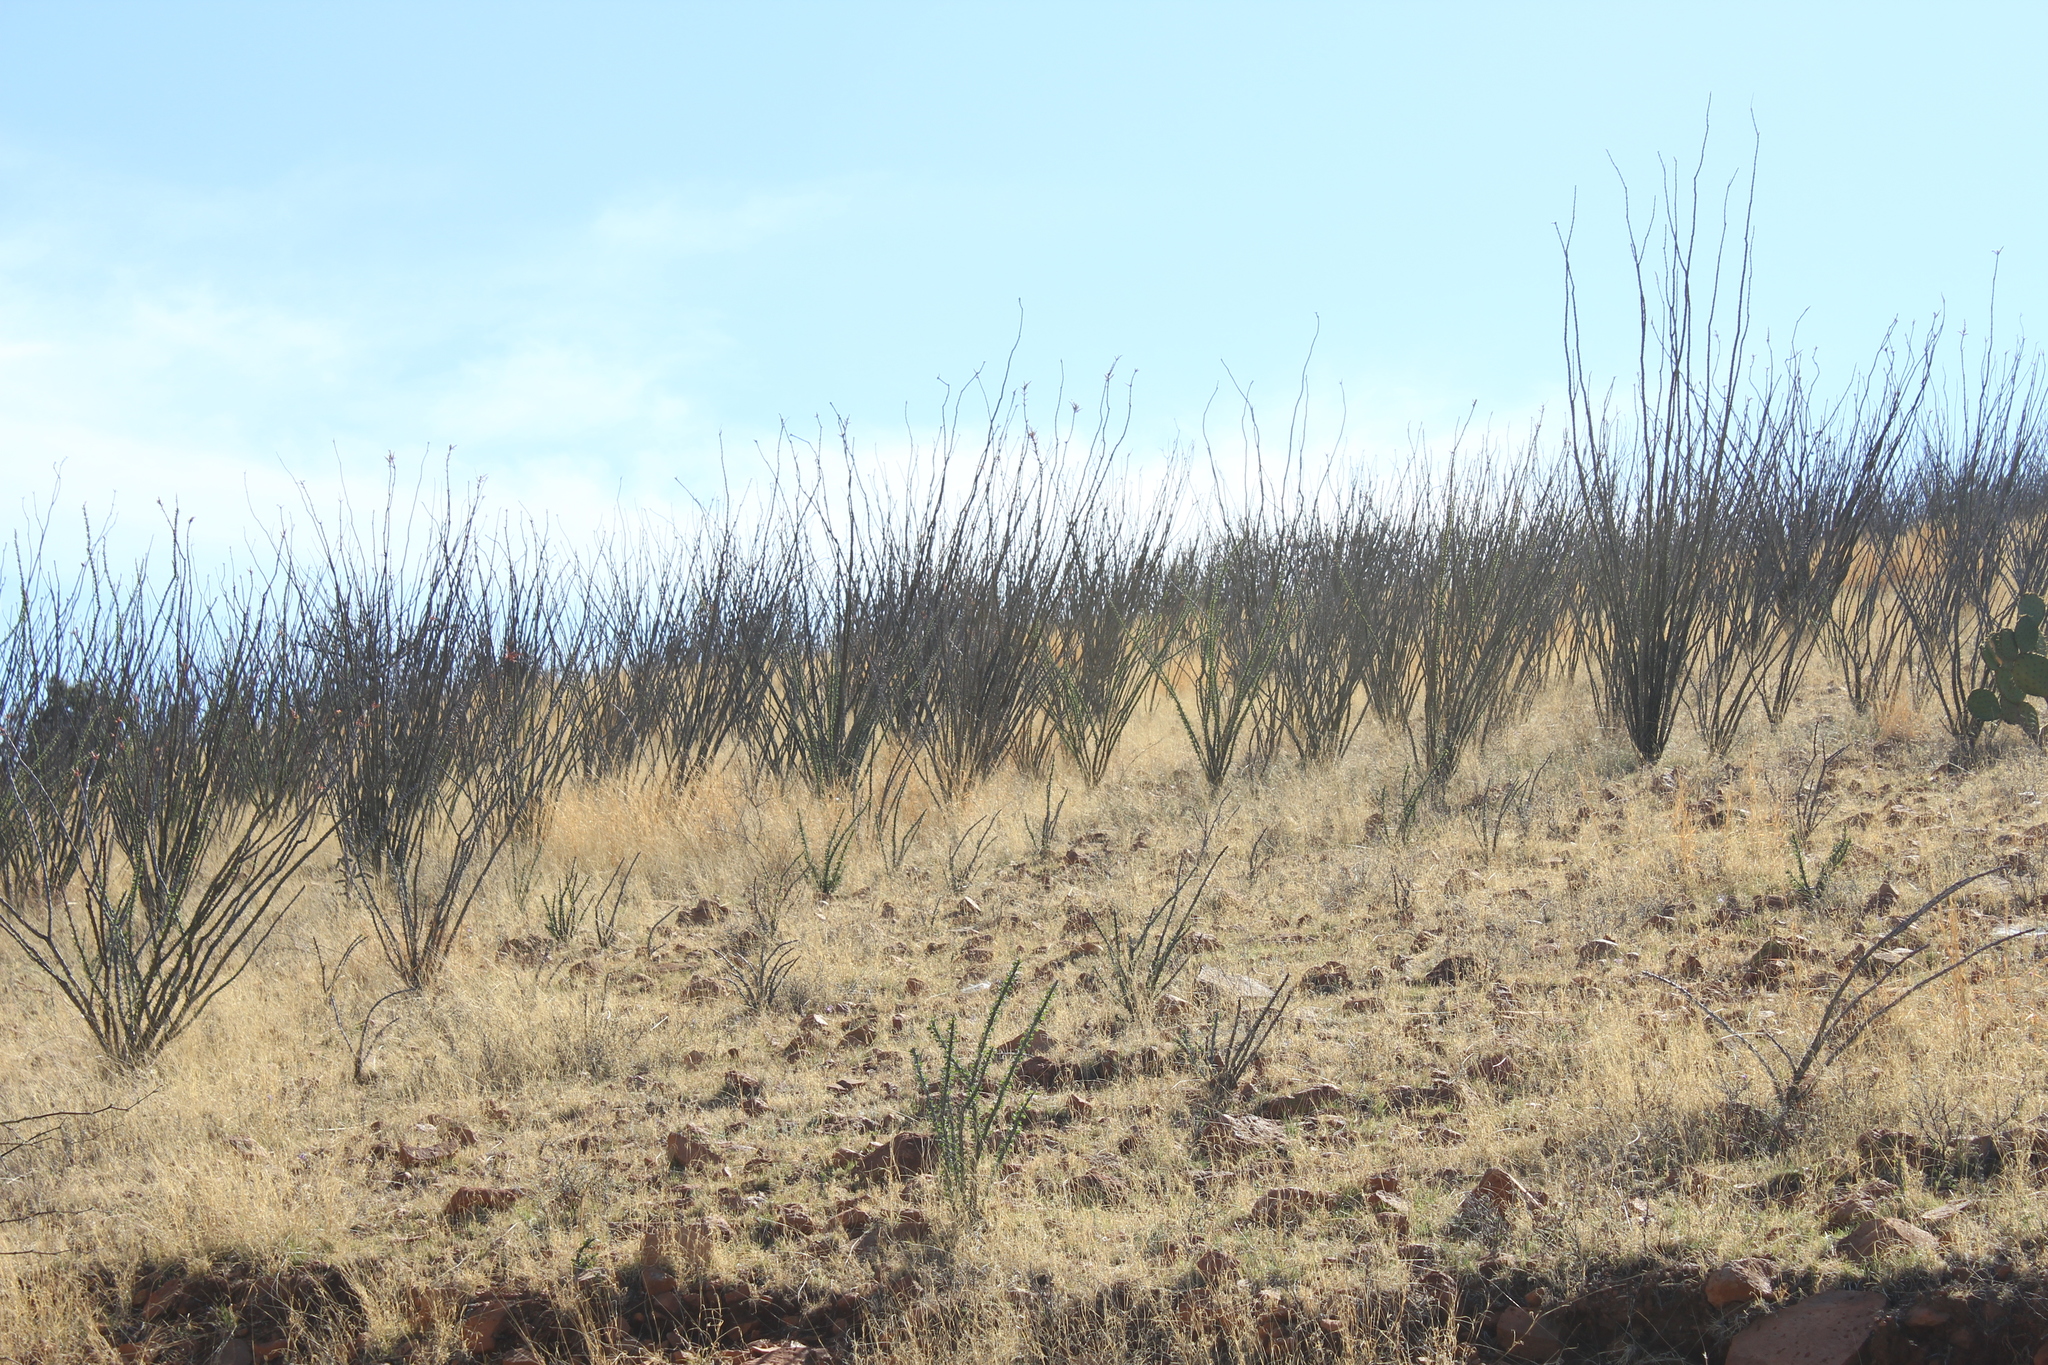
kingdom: Plantae
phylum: Tracheophyta
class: Magnoliopsida
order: Ericales
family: Fouquieriaceae
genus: Fouquieria
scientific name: Fouquieria splendens
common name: Vine-cactus
